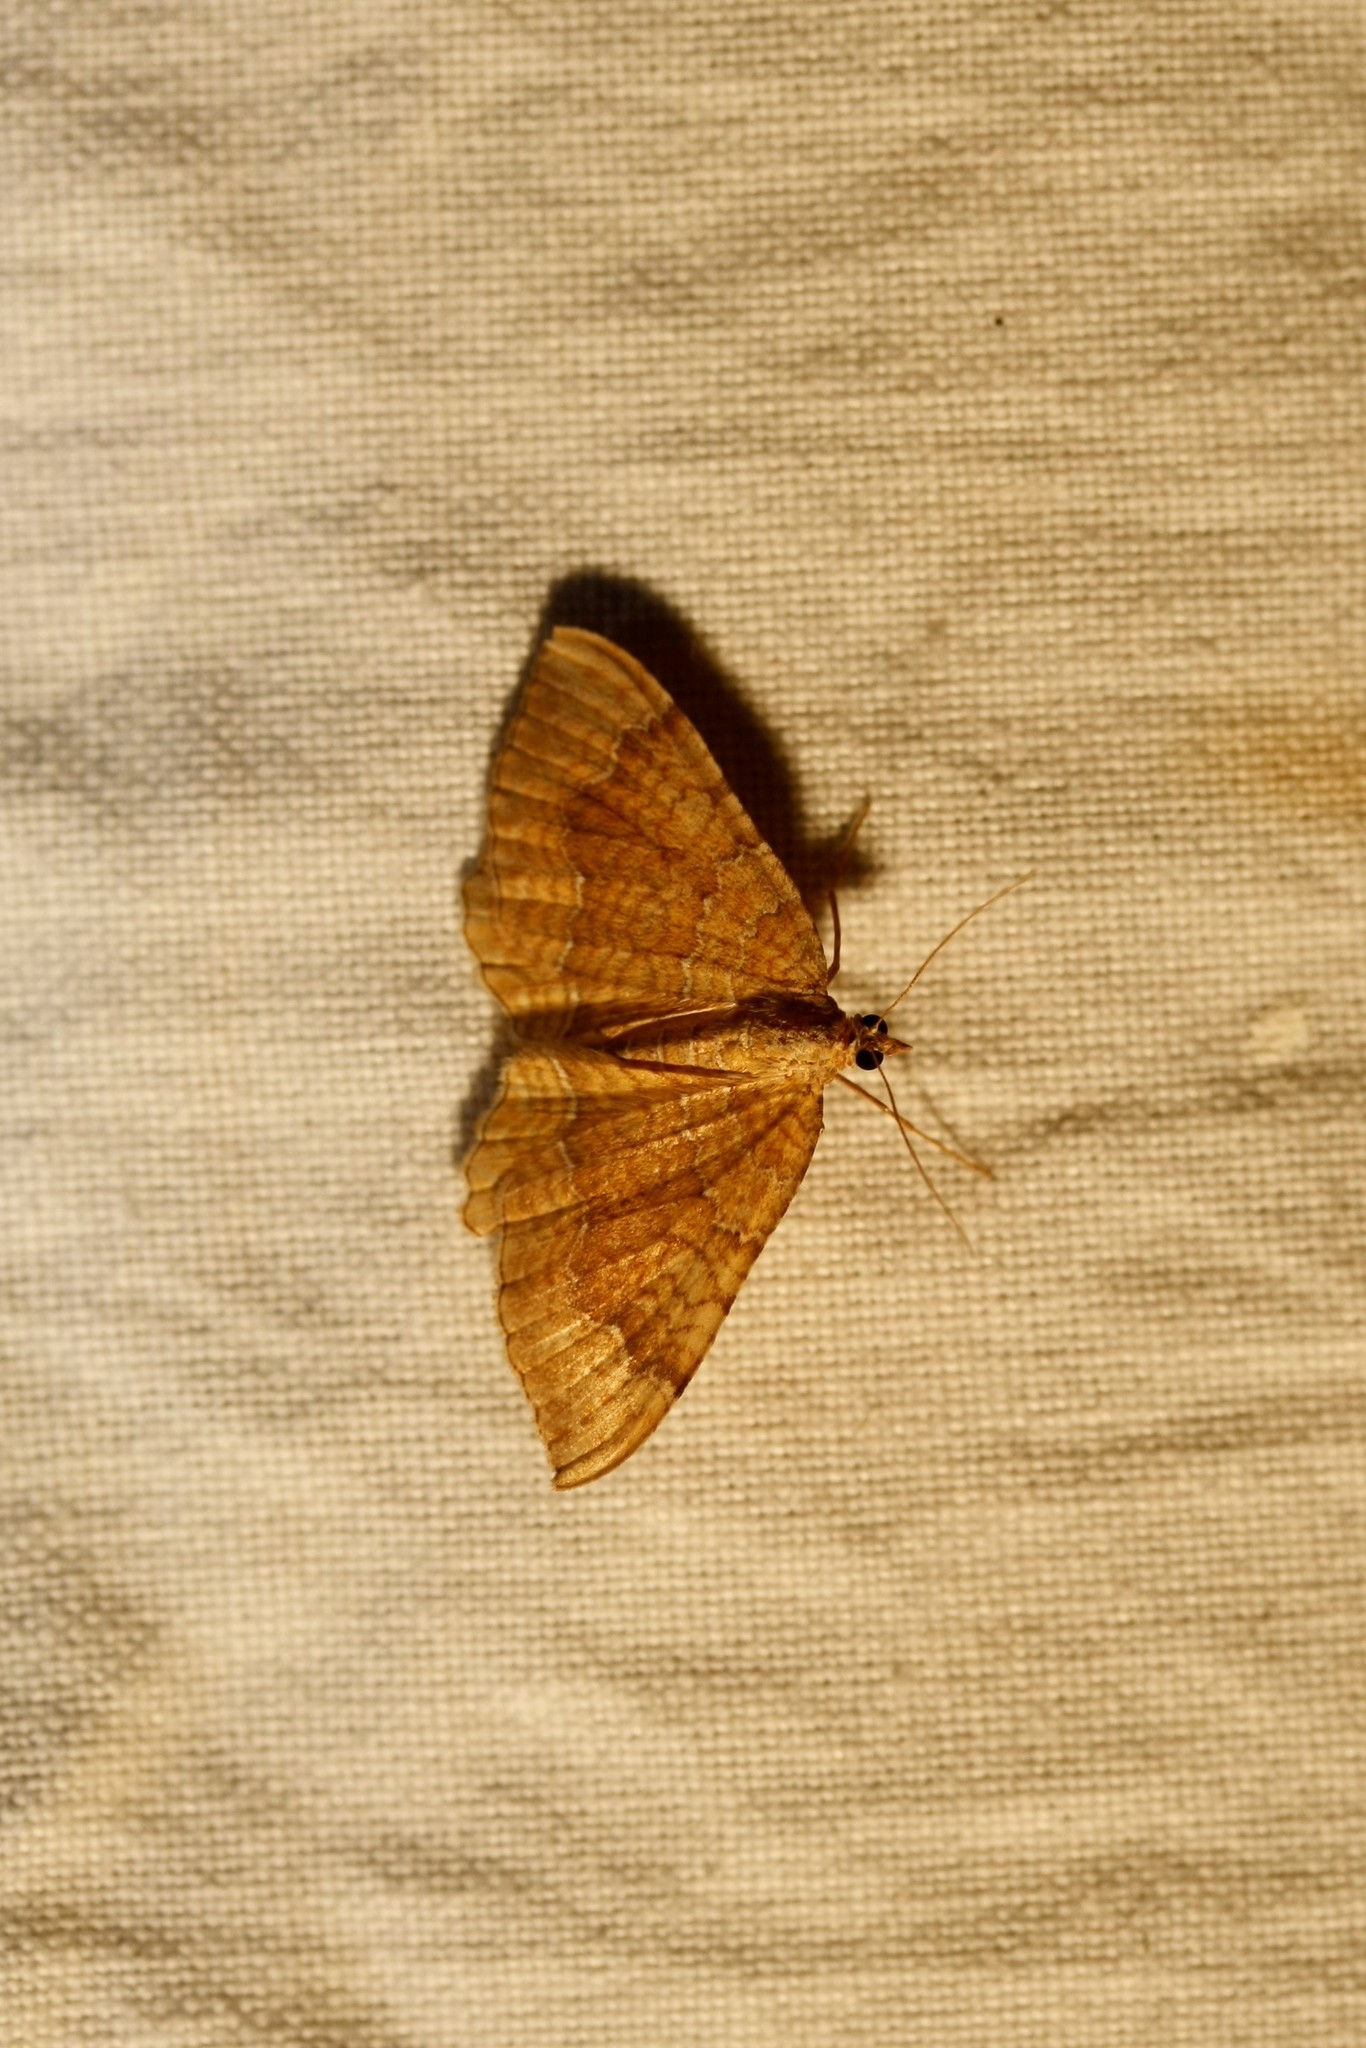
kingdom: Animalia
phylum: Arthropoda
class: Insecta
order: Lepidoptera
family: Geometridae
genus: Camptogramma
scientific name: Camptogramma bilineata
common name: Yellow shell
